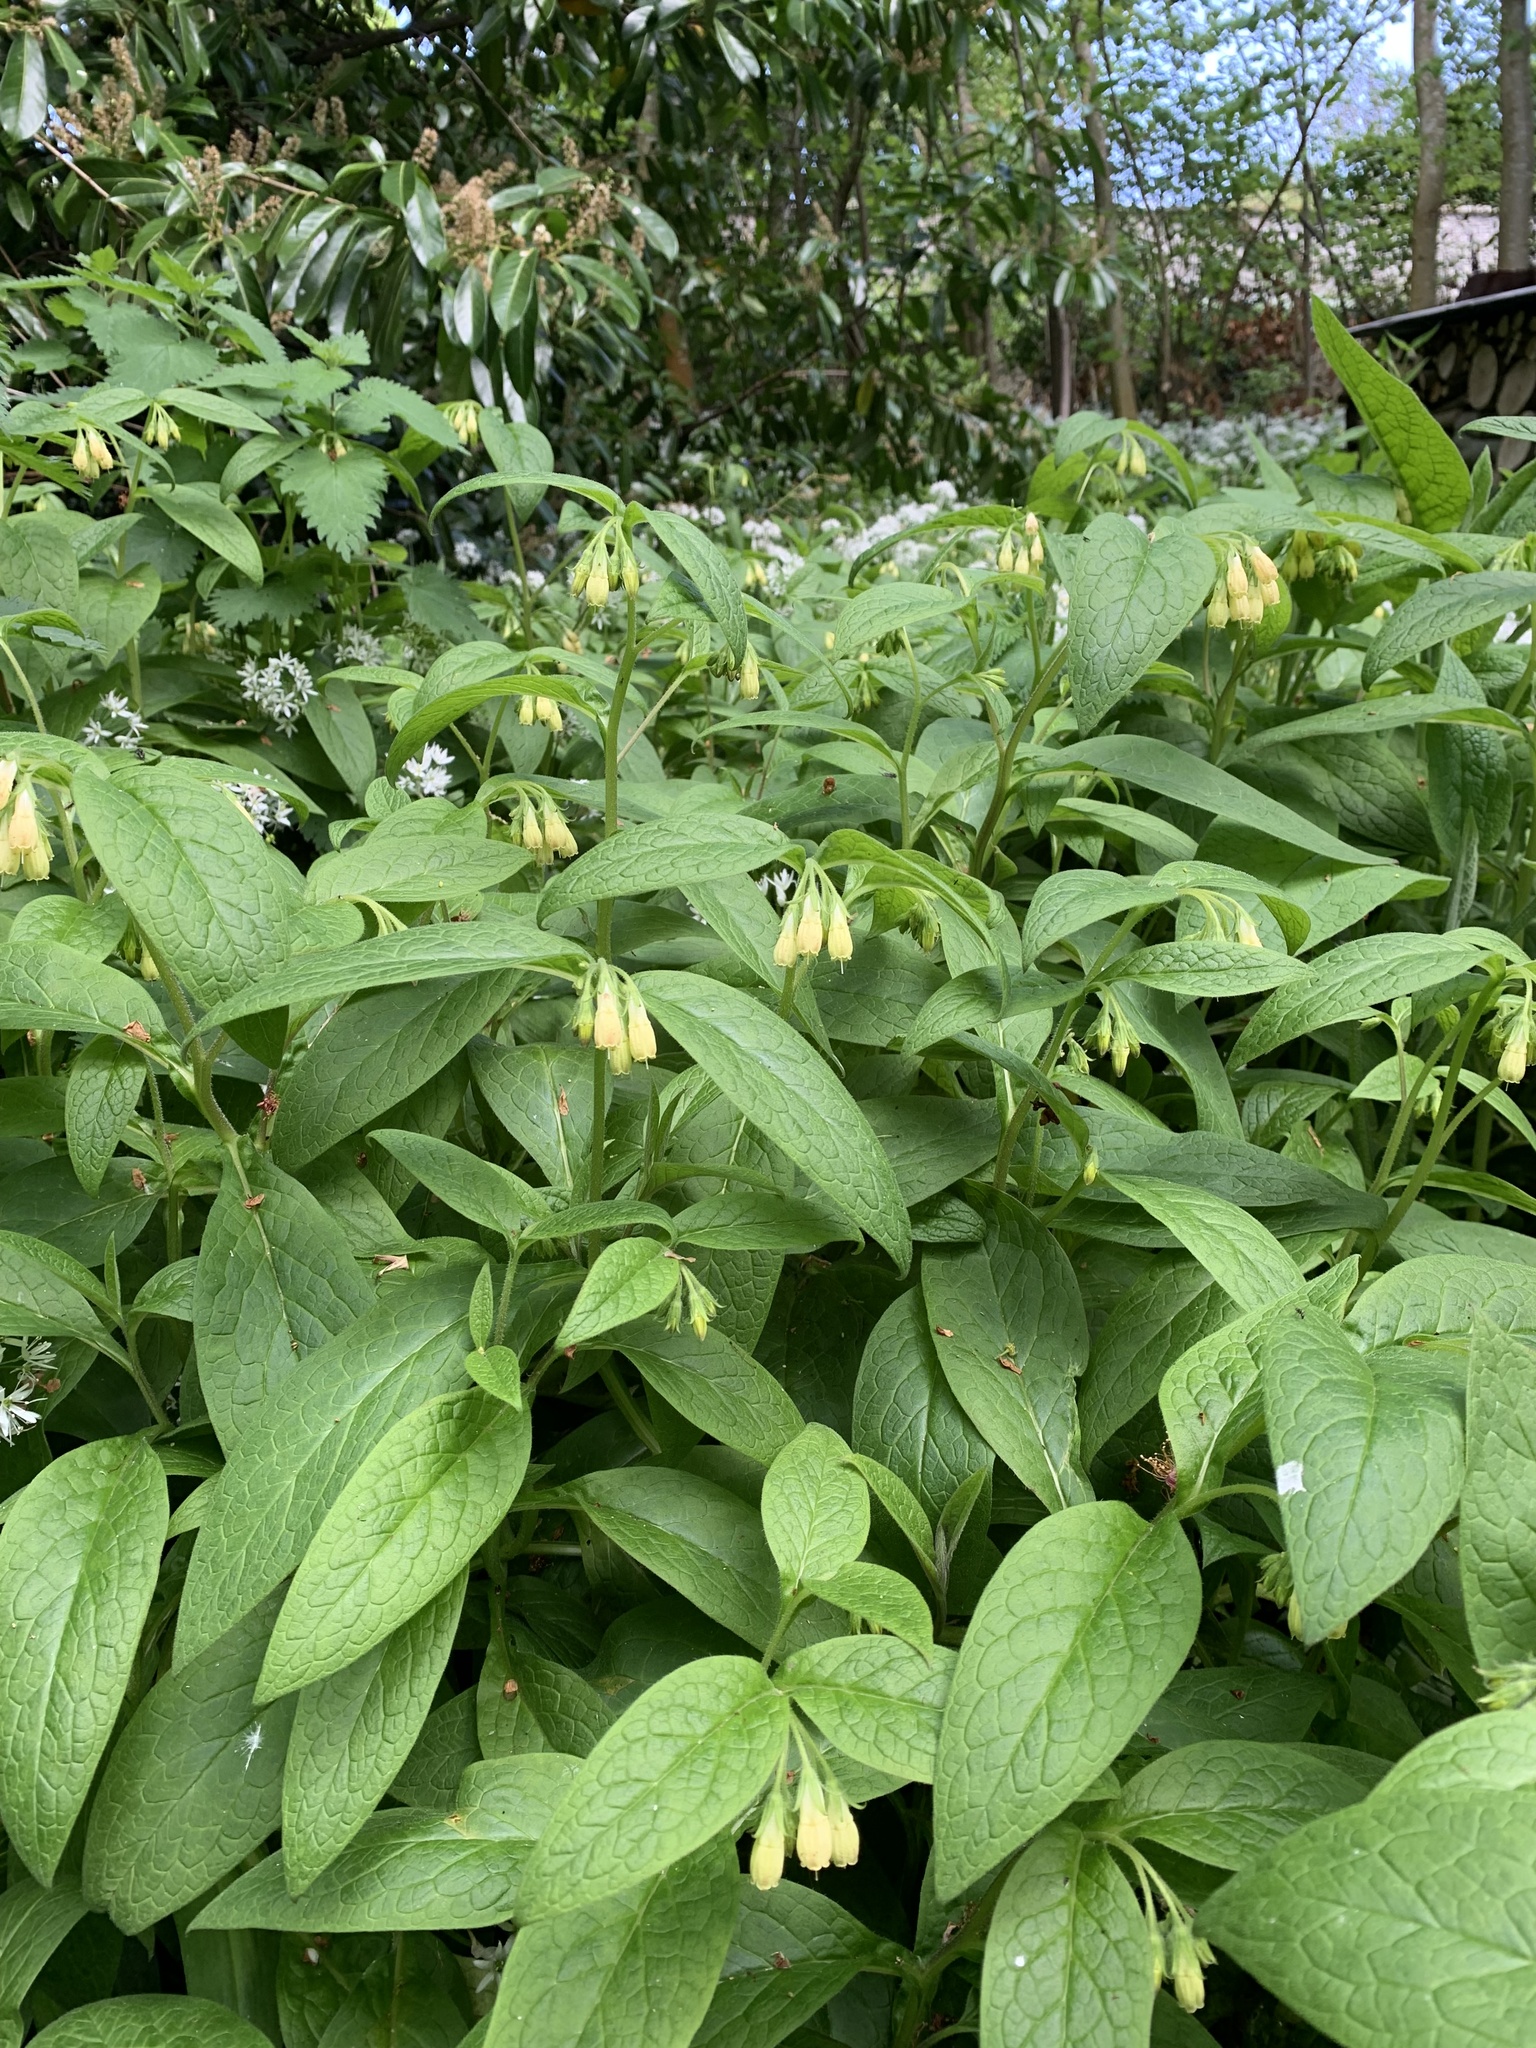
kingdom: Plantae
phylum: Tracheophyta
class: Magnoliopsida
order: Boraginales
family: Boraginaceae
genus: Symphytum
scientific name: Symphytum tuberosum
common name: Tuberous comfrey
